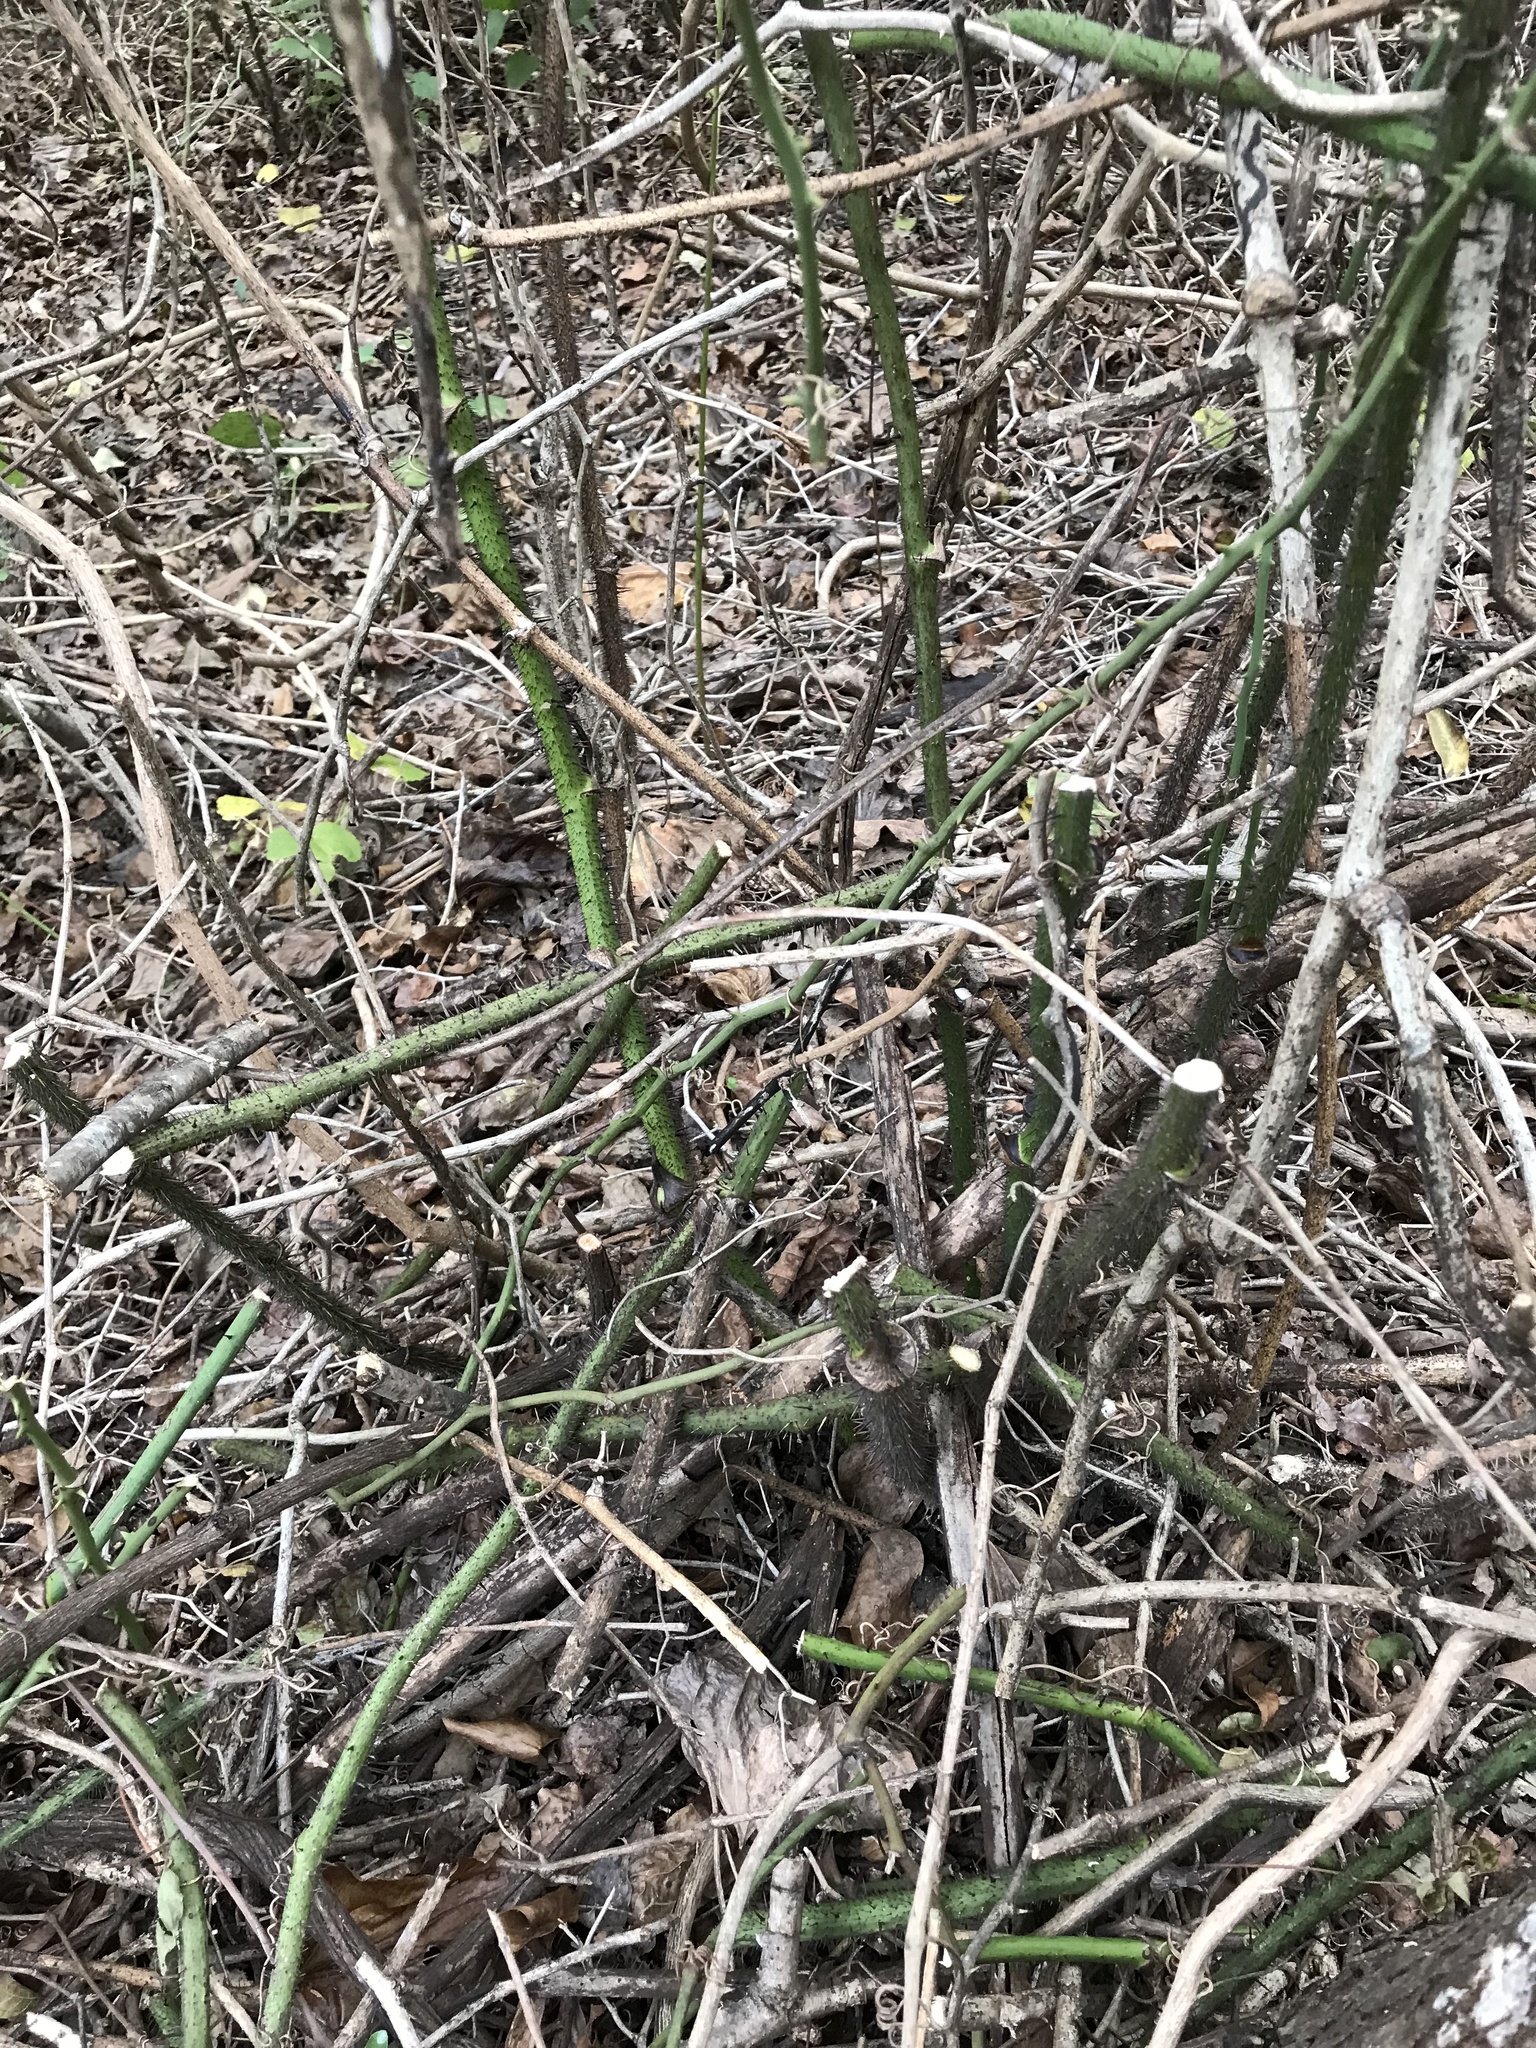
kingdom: Plantae
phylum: Tracheophyta
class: Liliopsida
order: Liliales
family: Smilacaceae
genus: Smilax
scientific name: Smilax tamnoides
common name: Hellfetter
